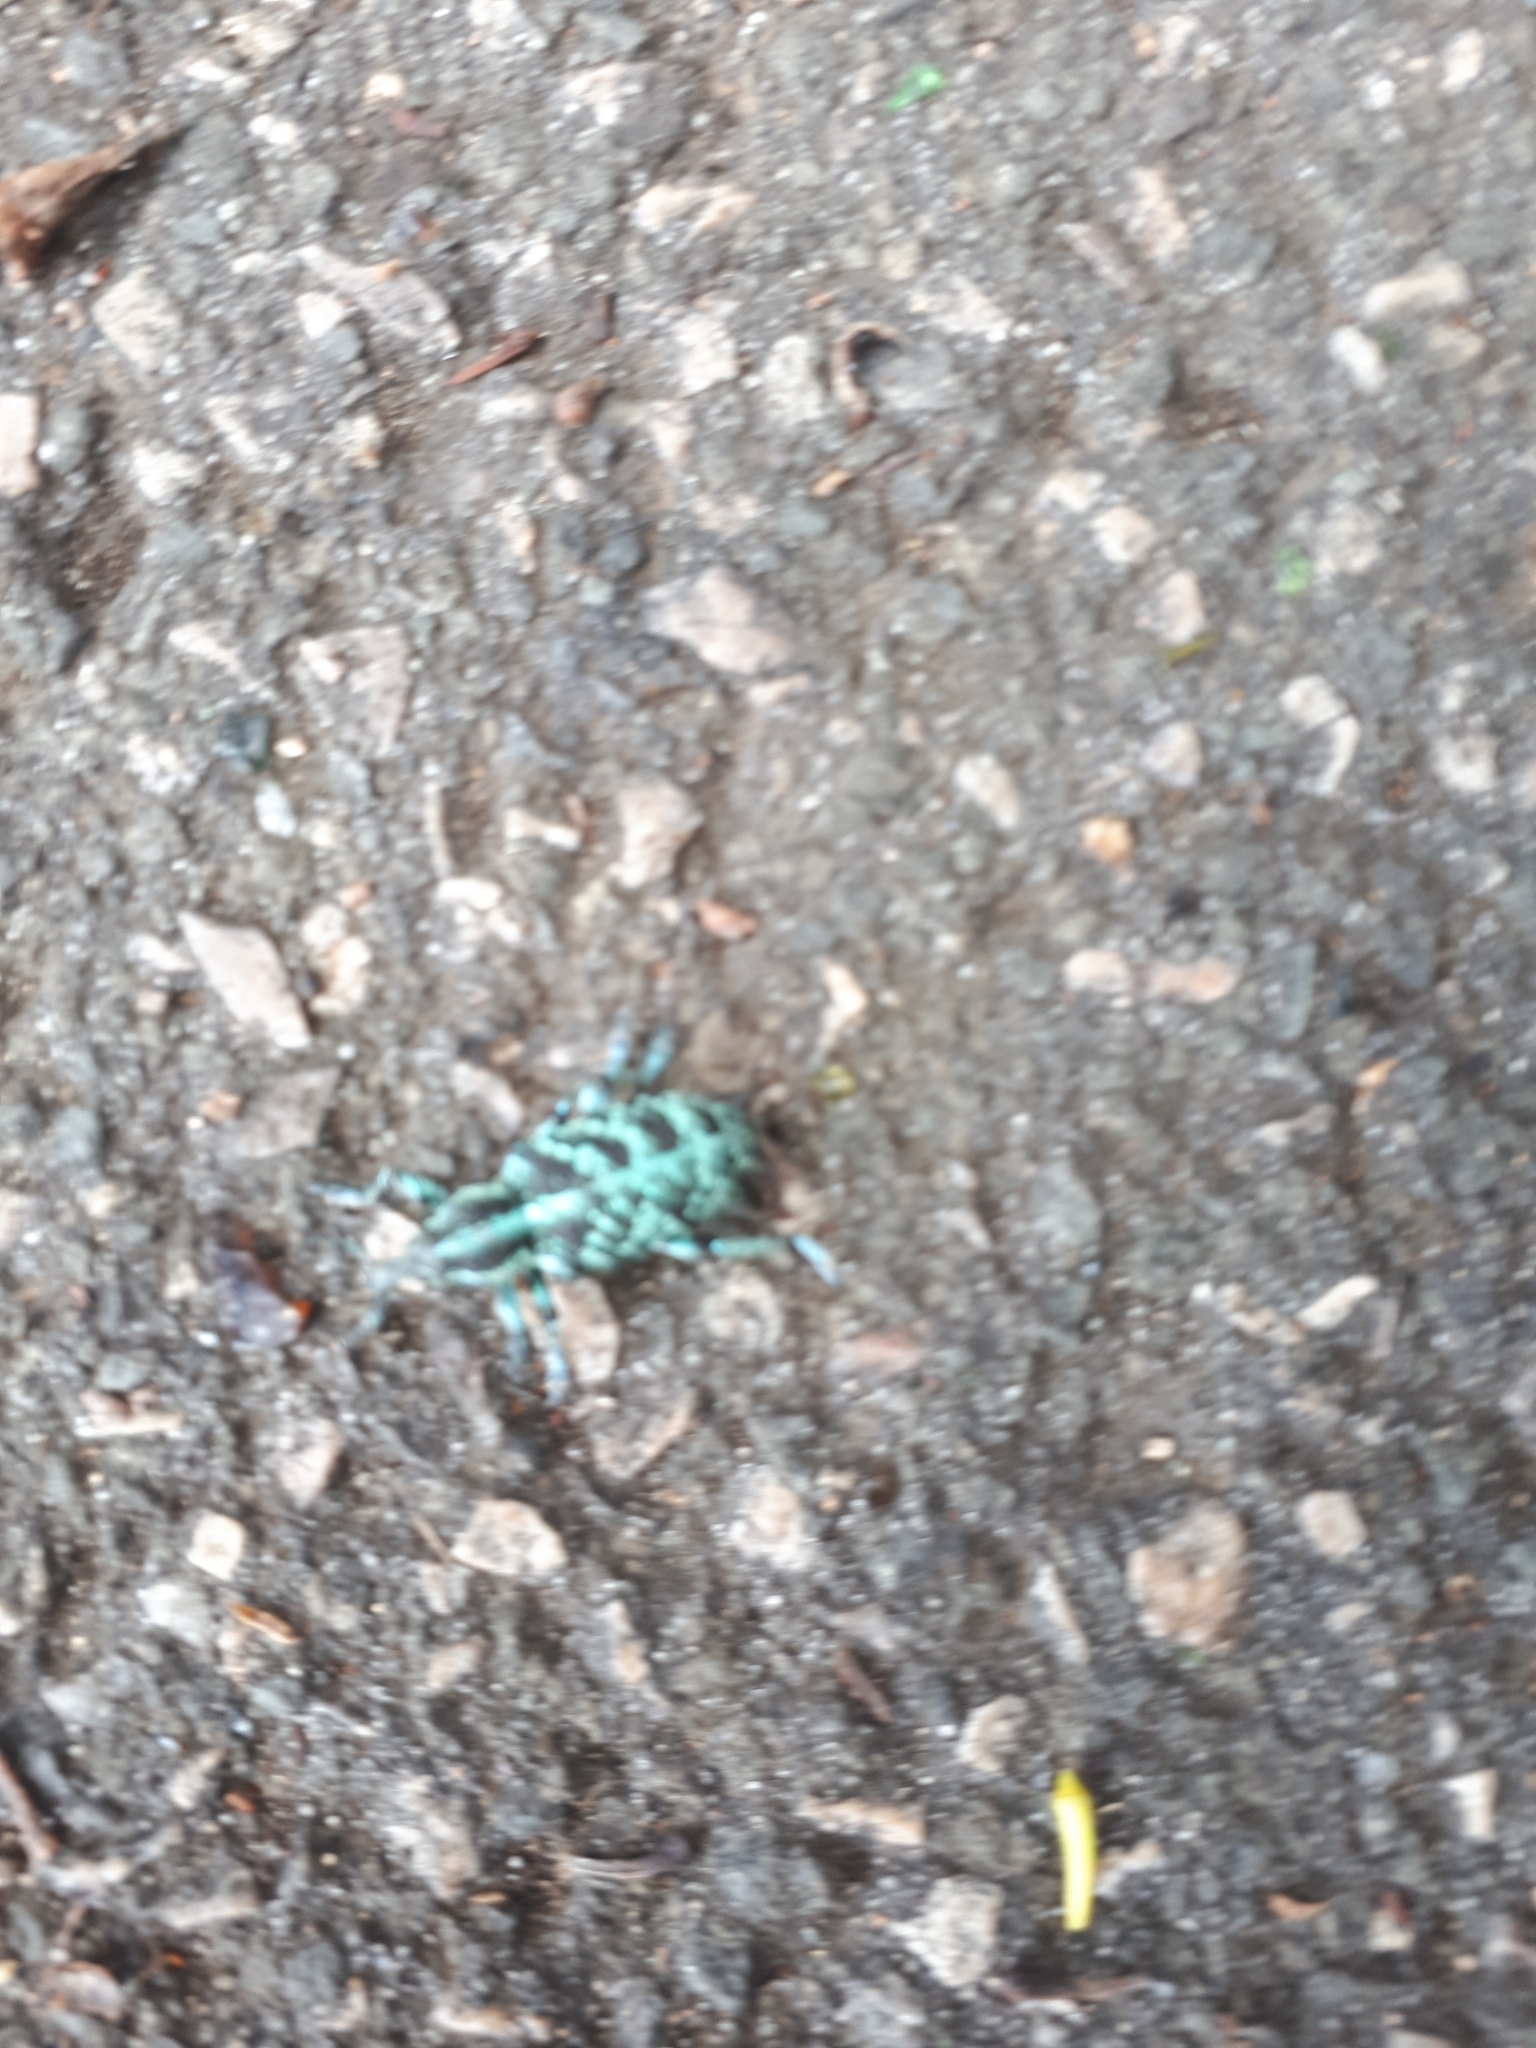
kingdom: Animalia
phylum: Arthropoda
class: Insecta
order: Coleoptera
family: Curculionidae
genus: Chrysolopus
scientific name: Chrysolopus spectabilis
